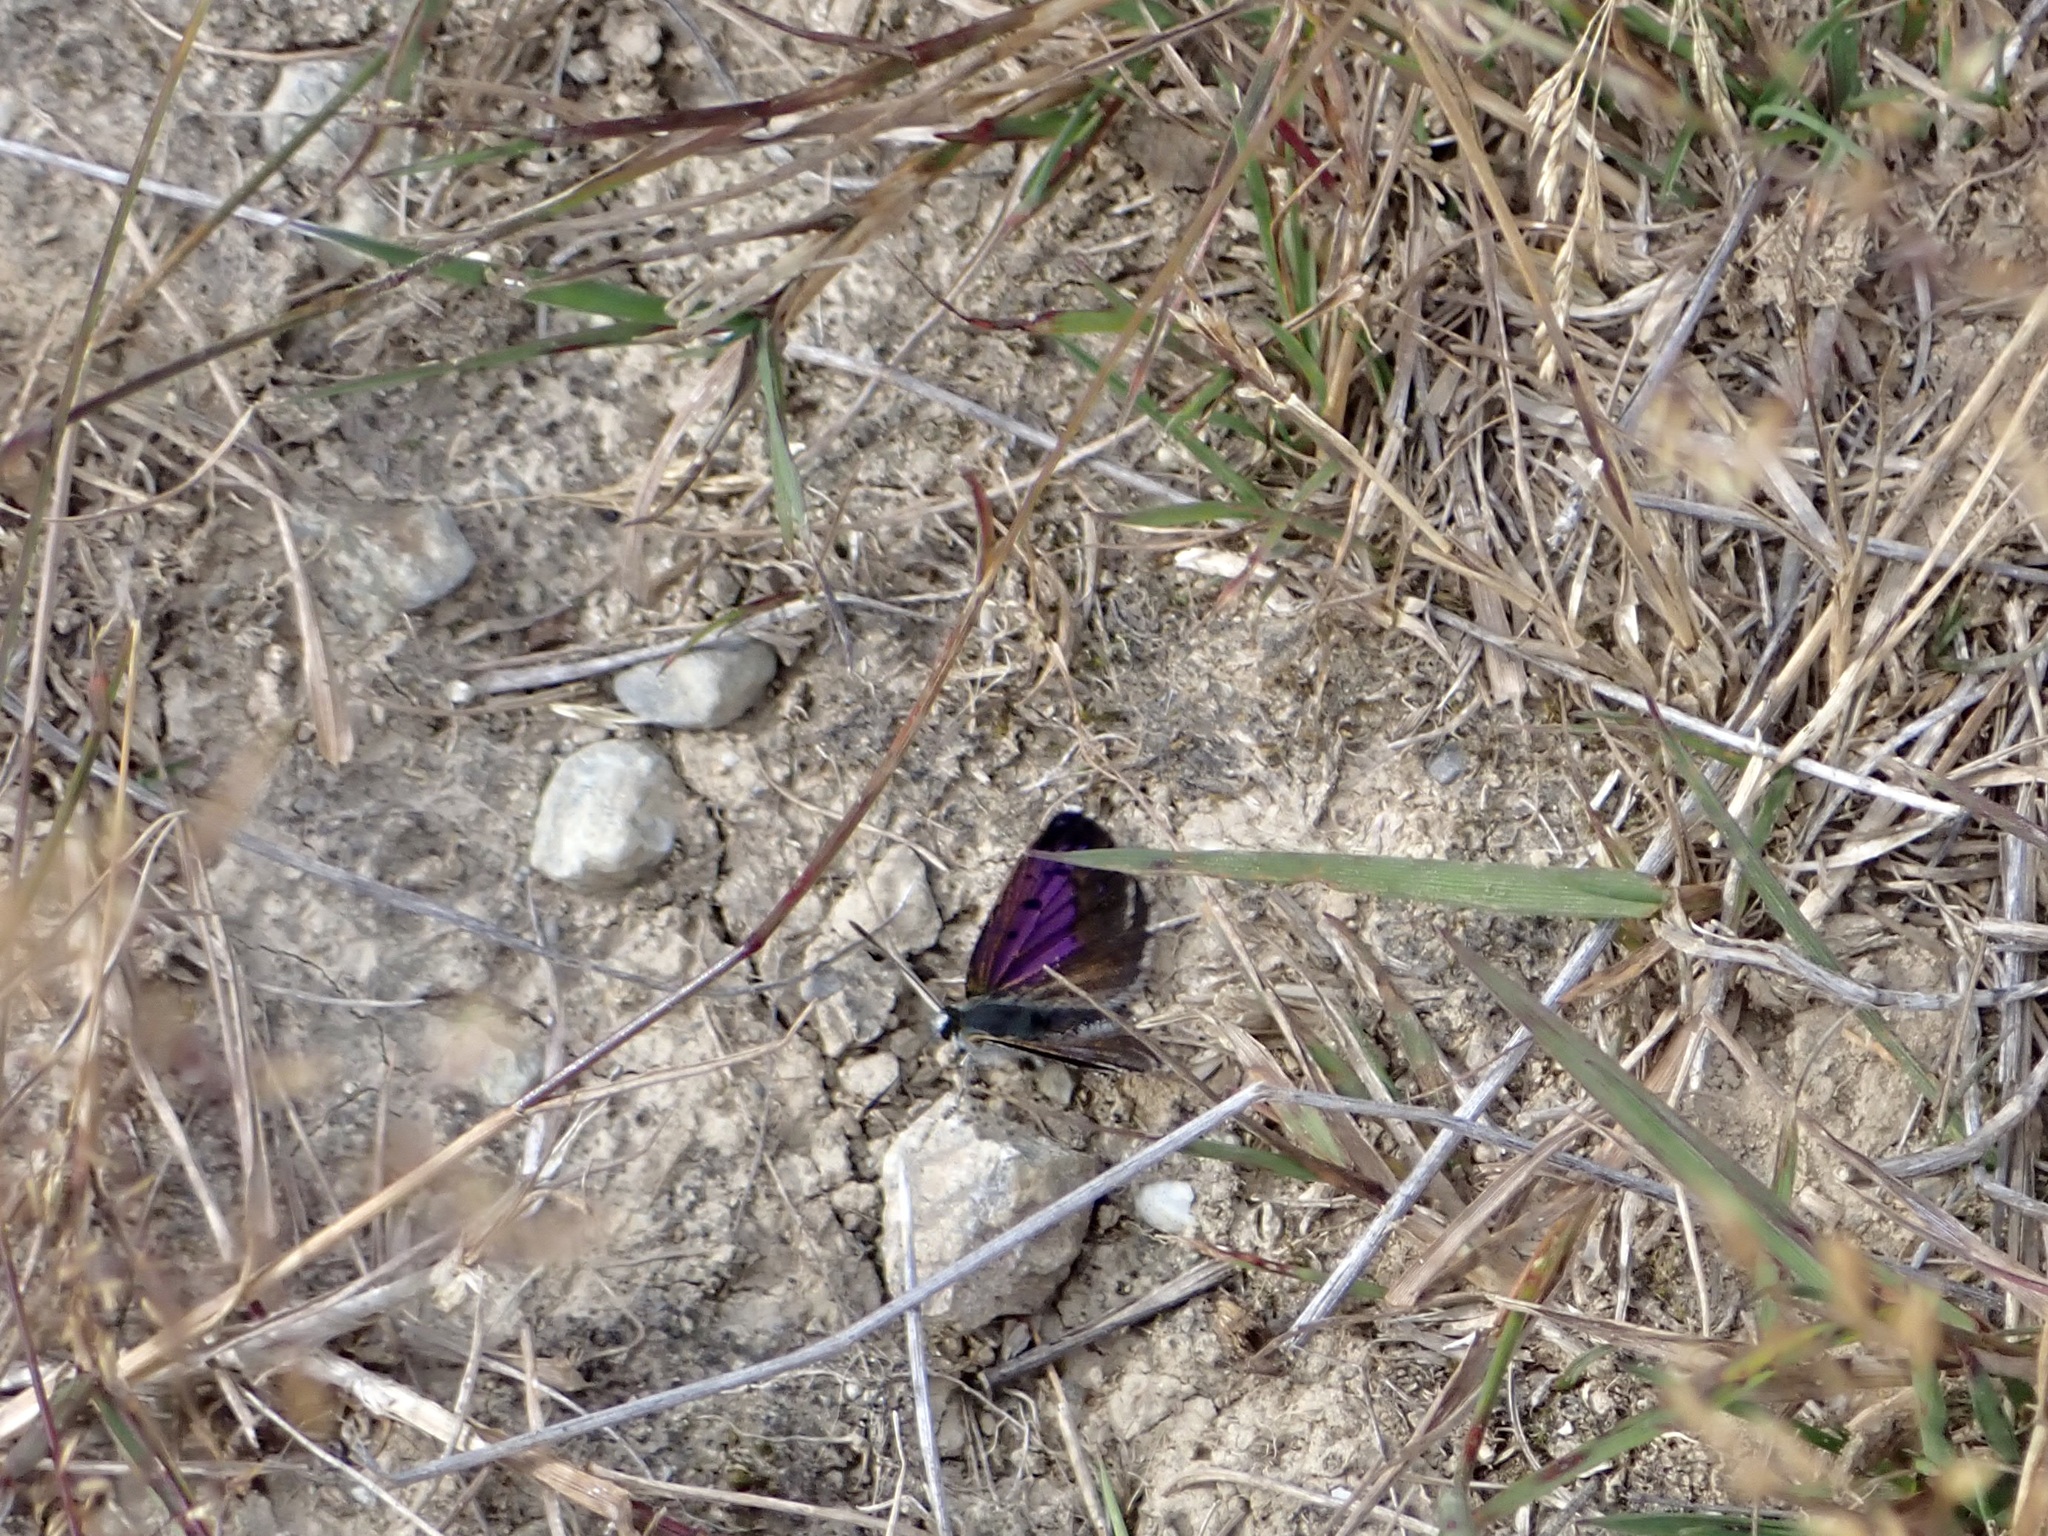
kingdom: Animalia
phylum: Arthropoda
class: Insecta
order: Lepidoptera
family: Lycaenidae
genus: Lycaena
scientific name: Lycaena tama
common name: Canterbury alpine boulder copper
